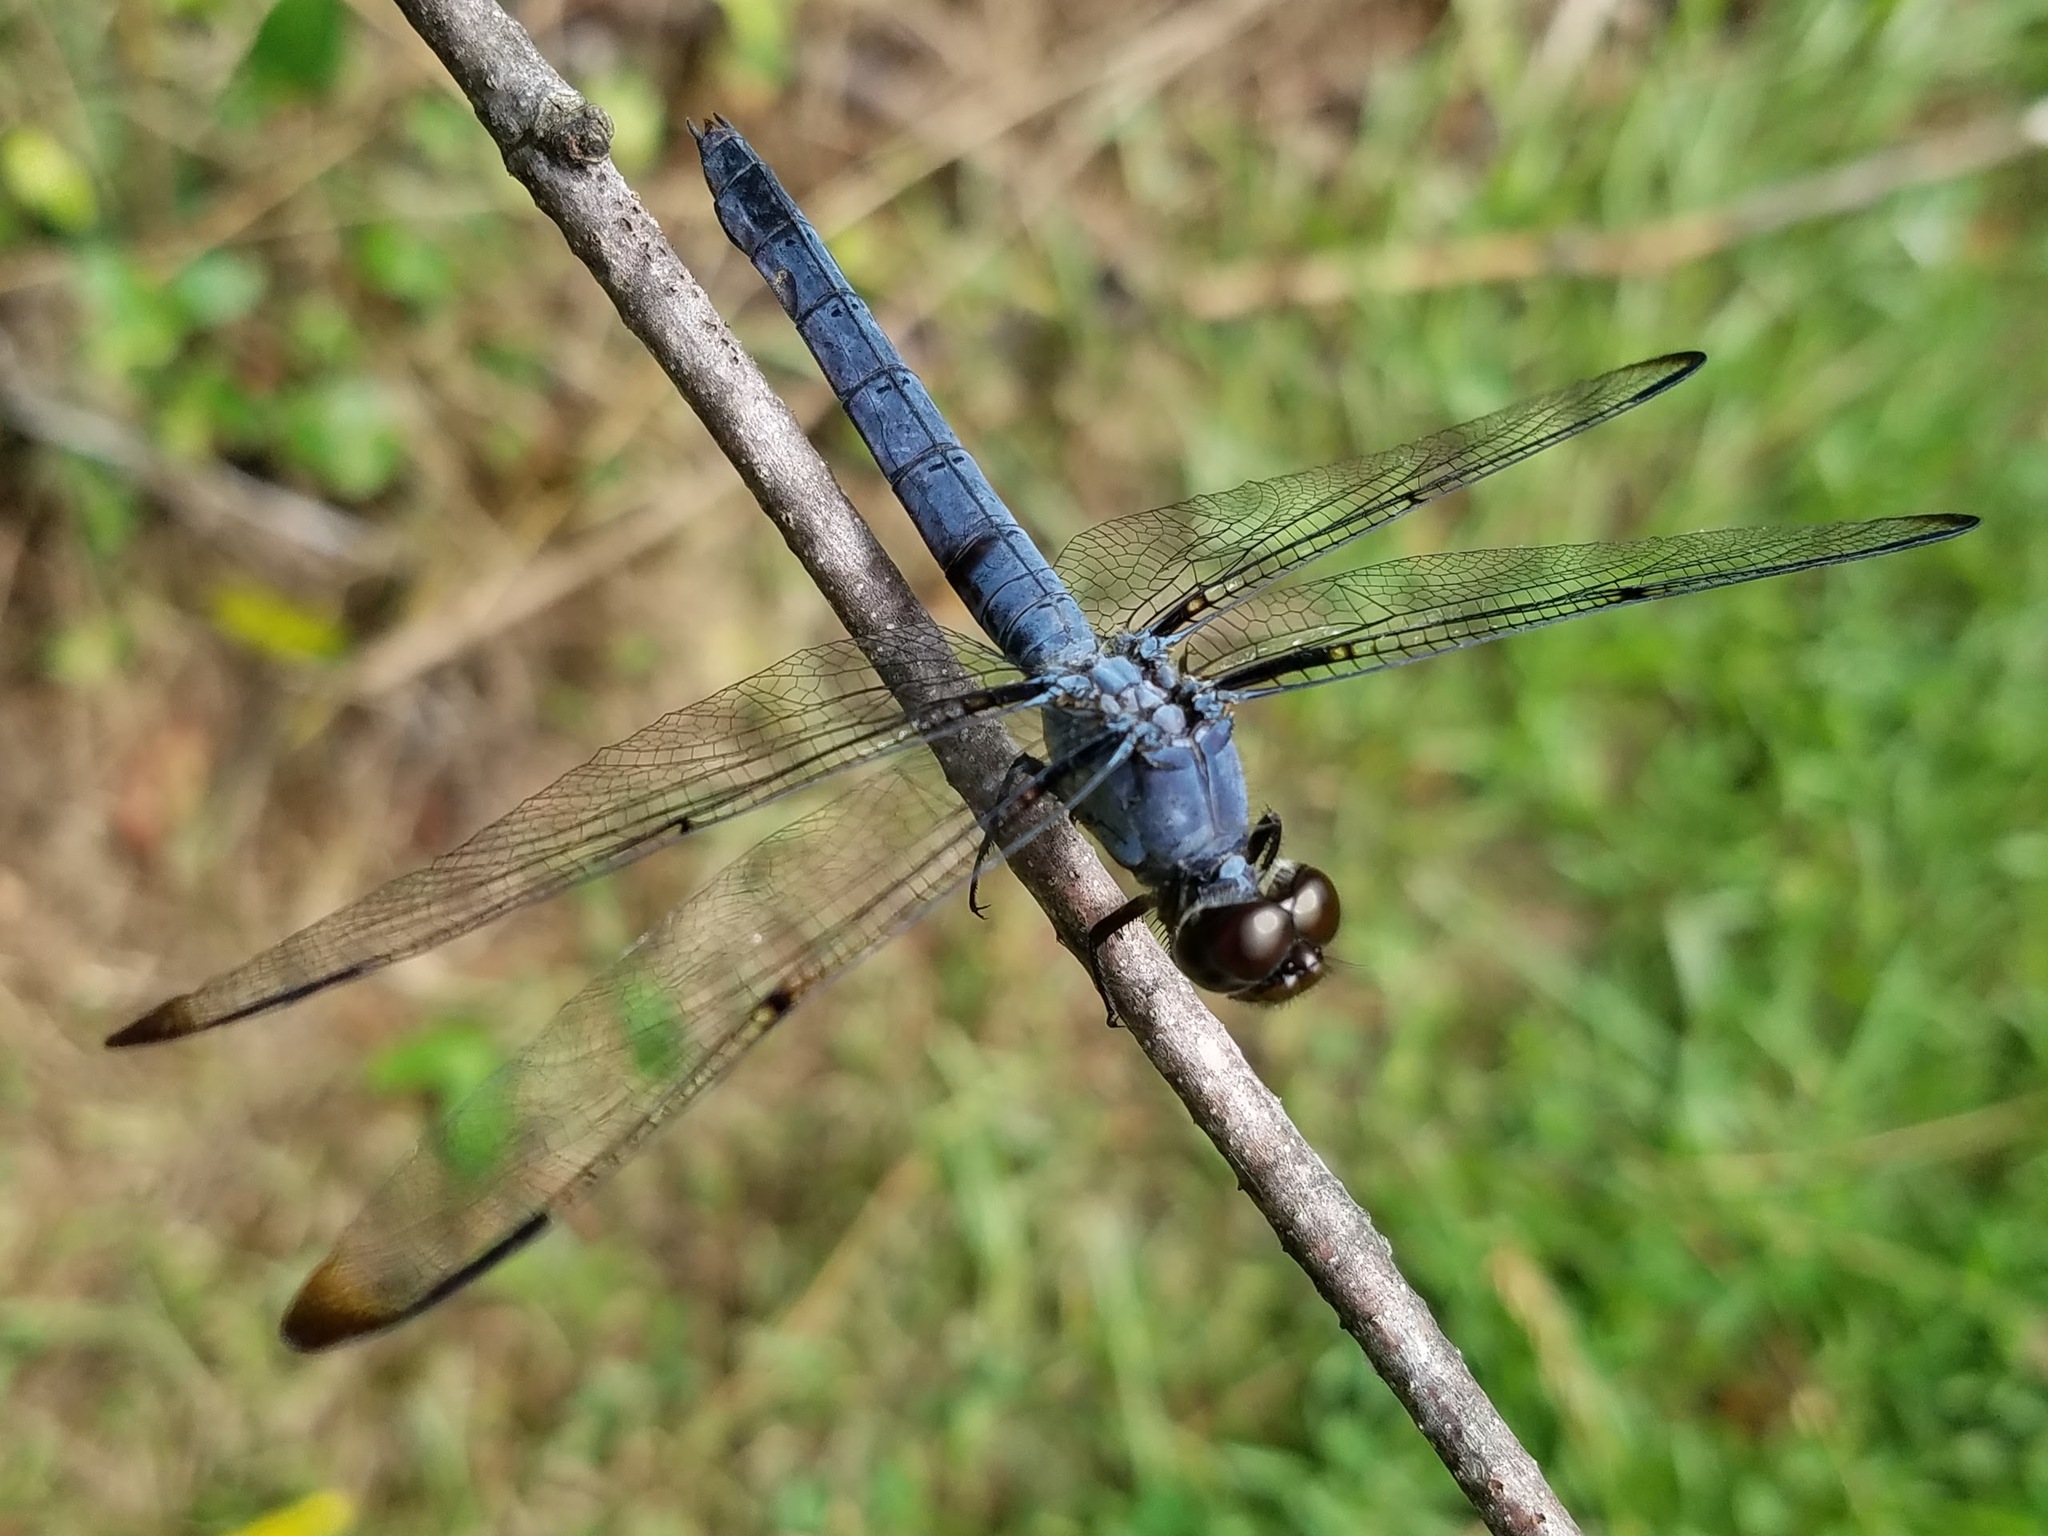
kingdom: Animalia
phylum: Arthropoda
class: Insecta
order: Odonata
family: Libellulidae
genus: Libellula
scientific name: Libellula incesta
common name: Slaty skimmer
